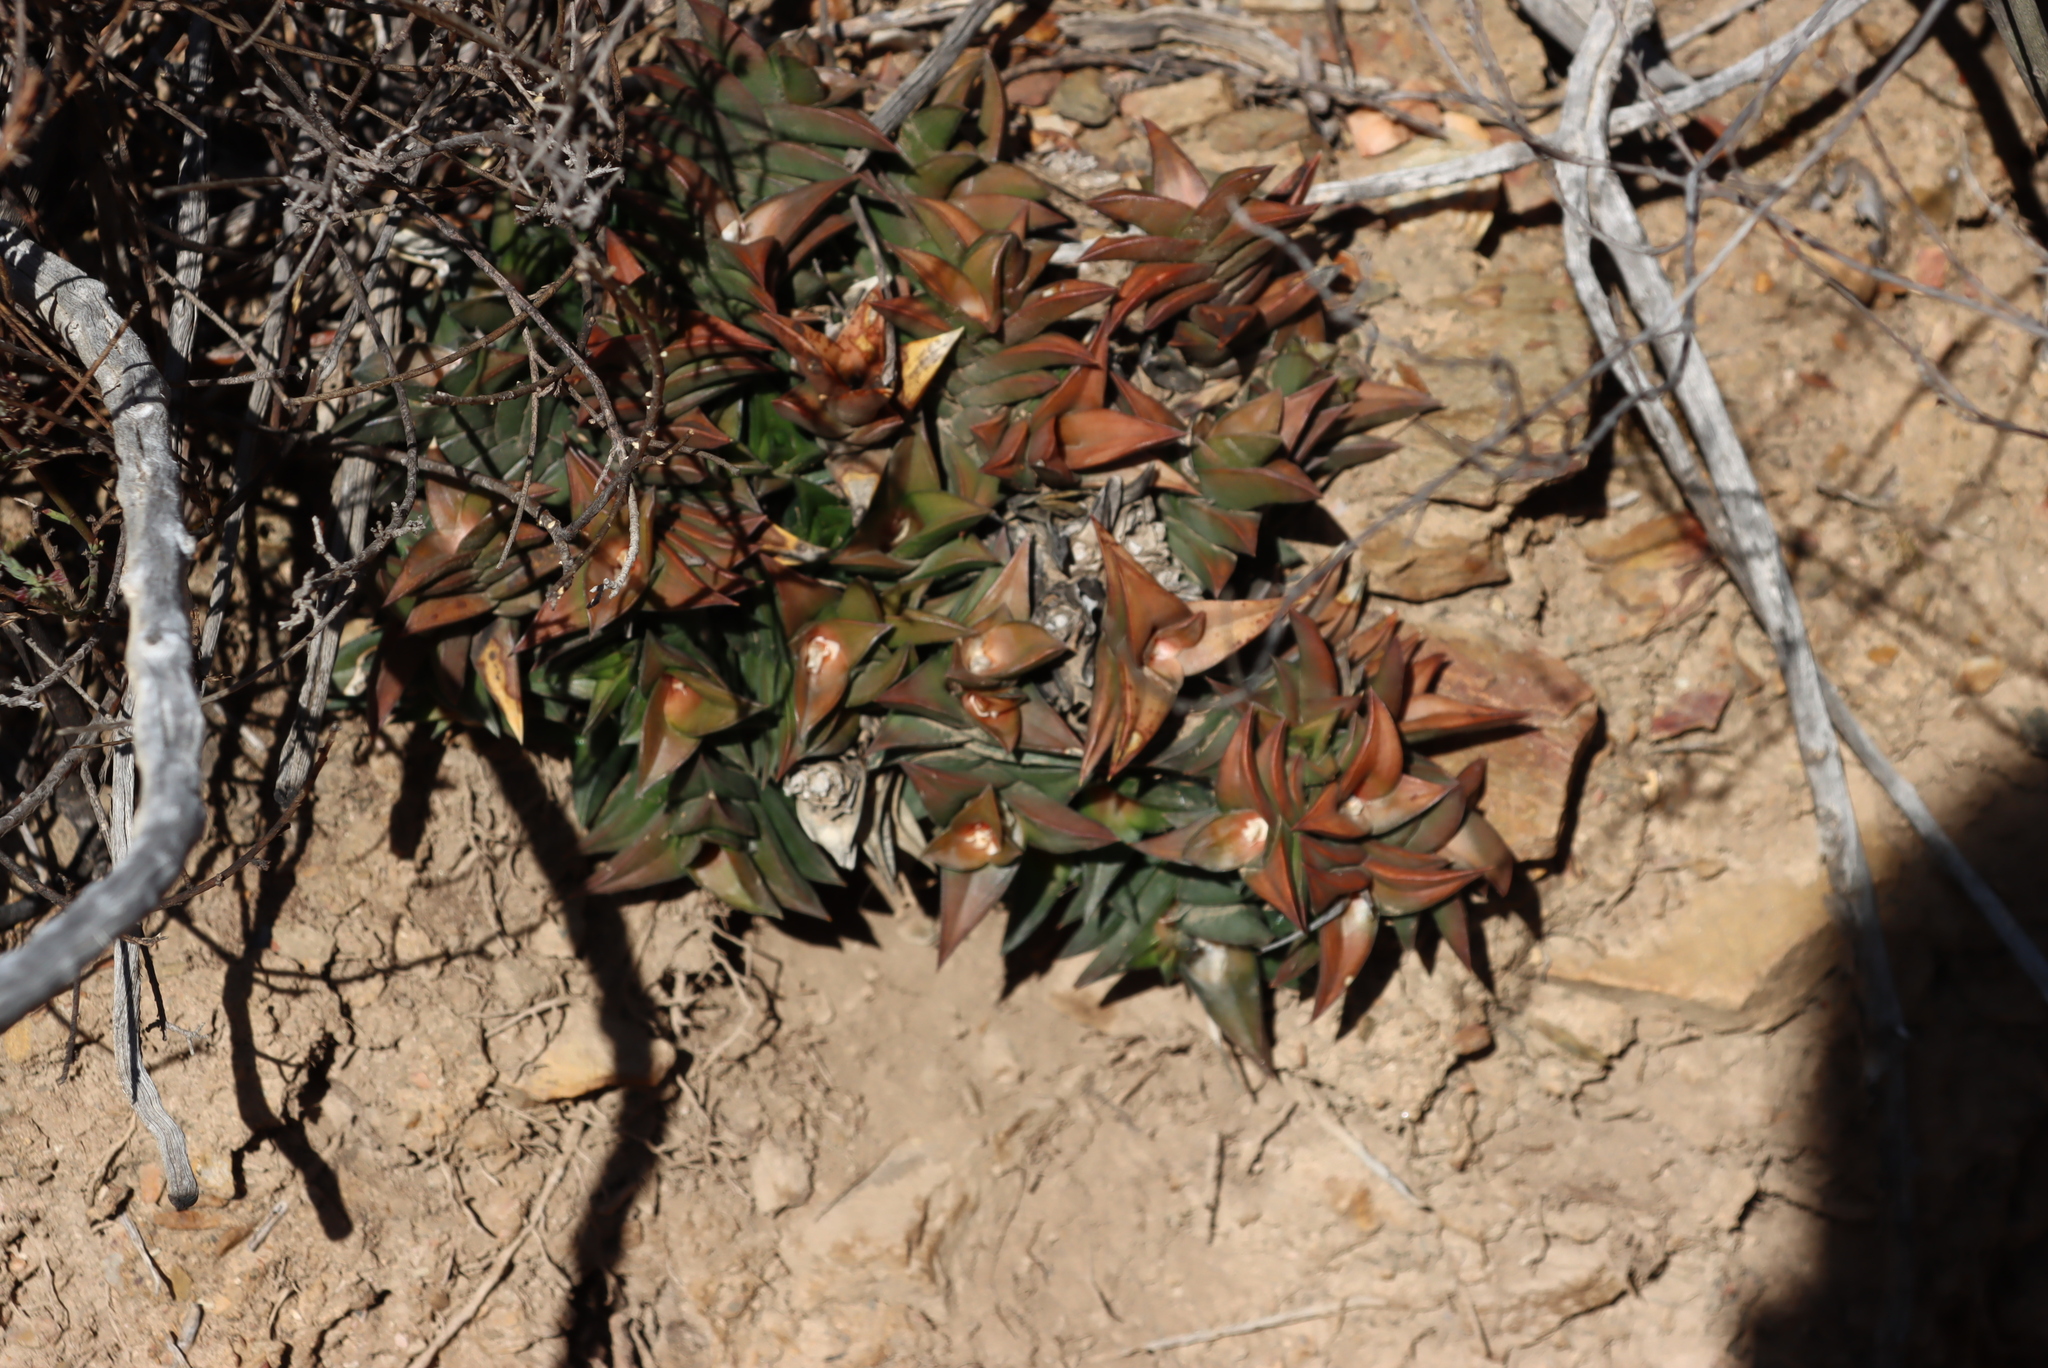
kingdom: Plantae
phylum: Tracheophyta
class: Liliopsida
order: Asparagales
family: Asphodelaceae
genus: Haworthiopsis
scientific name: Haworthiopsis viscosa
